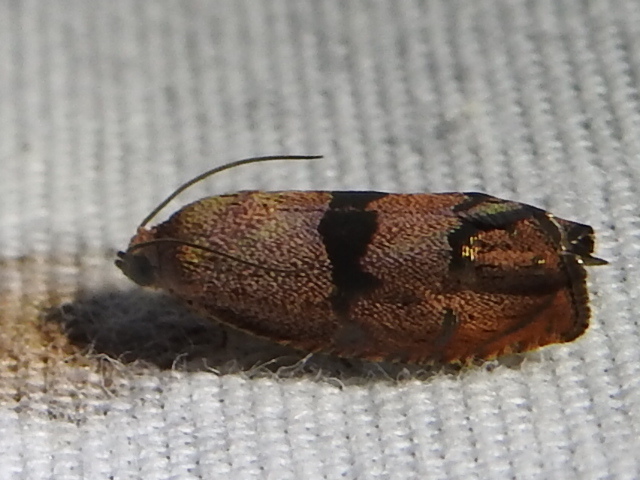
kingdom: Animalia
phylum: Arthropoda
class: Insecta
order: Lepidoptera
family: Tortricidae
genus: Cydia
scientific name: Cydia latiferreana
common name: Filbertworm moth
